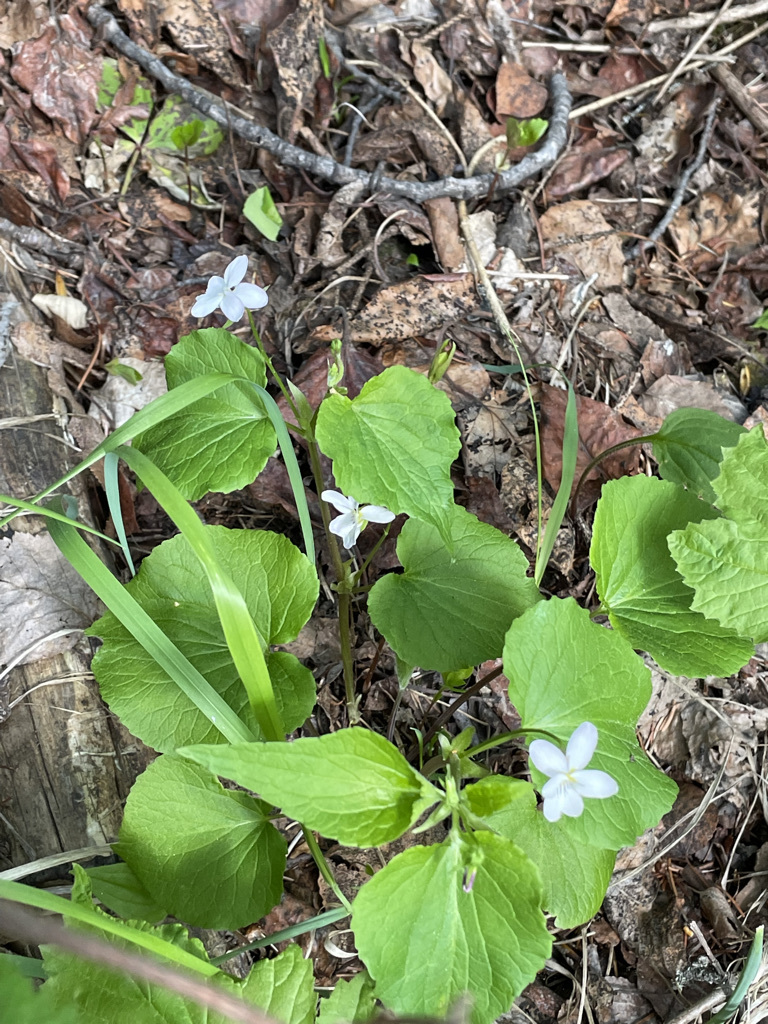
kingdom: Plantae
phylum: Tracheophyta
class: Magnoliopsida
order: Malpighiales
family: Violaceae
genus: Viola
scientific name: Viola canadensis
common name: Canada violet
